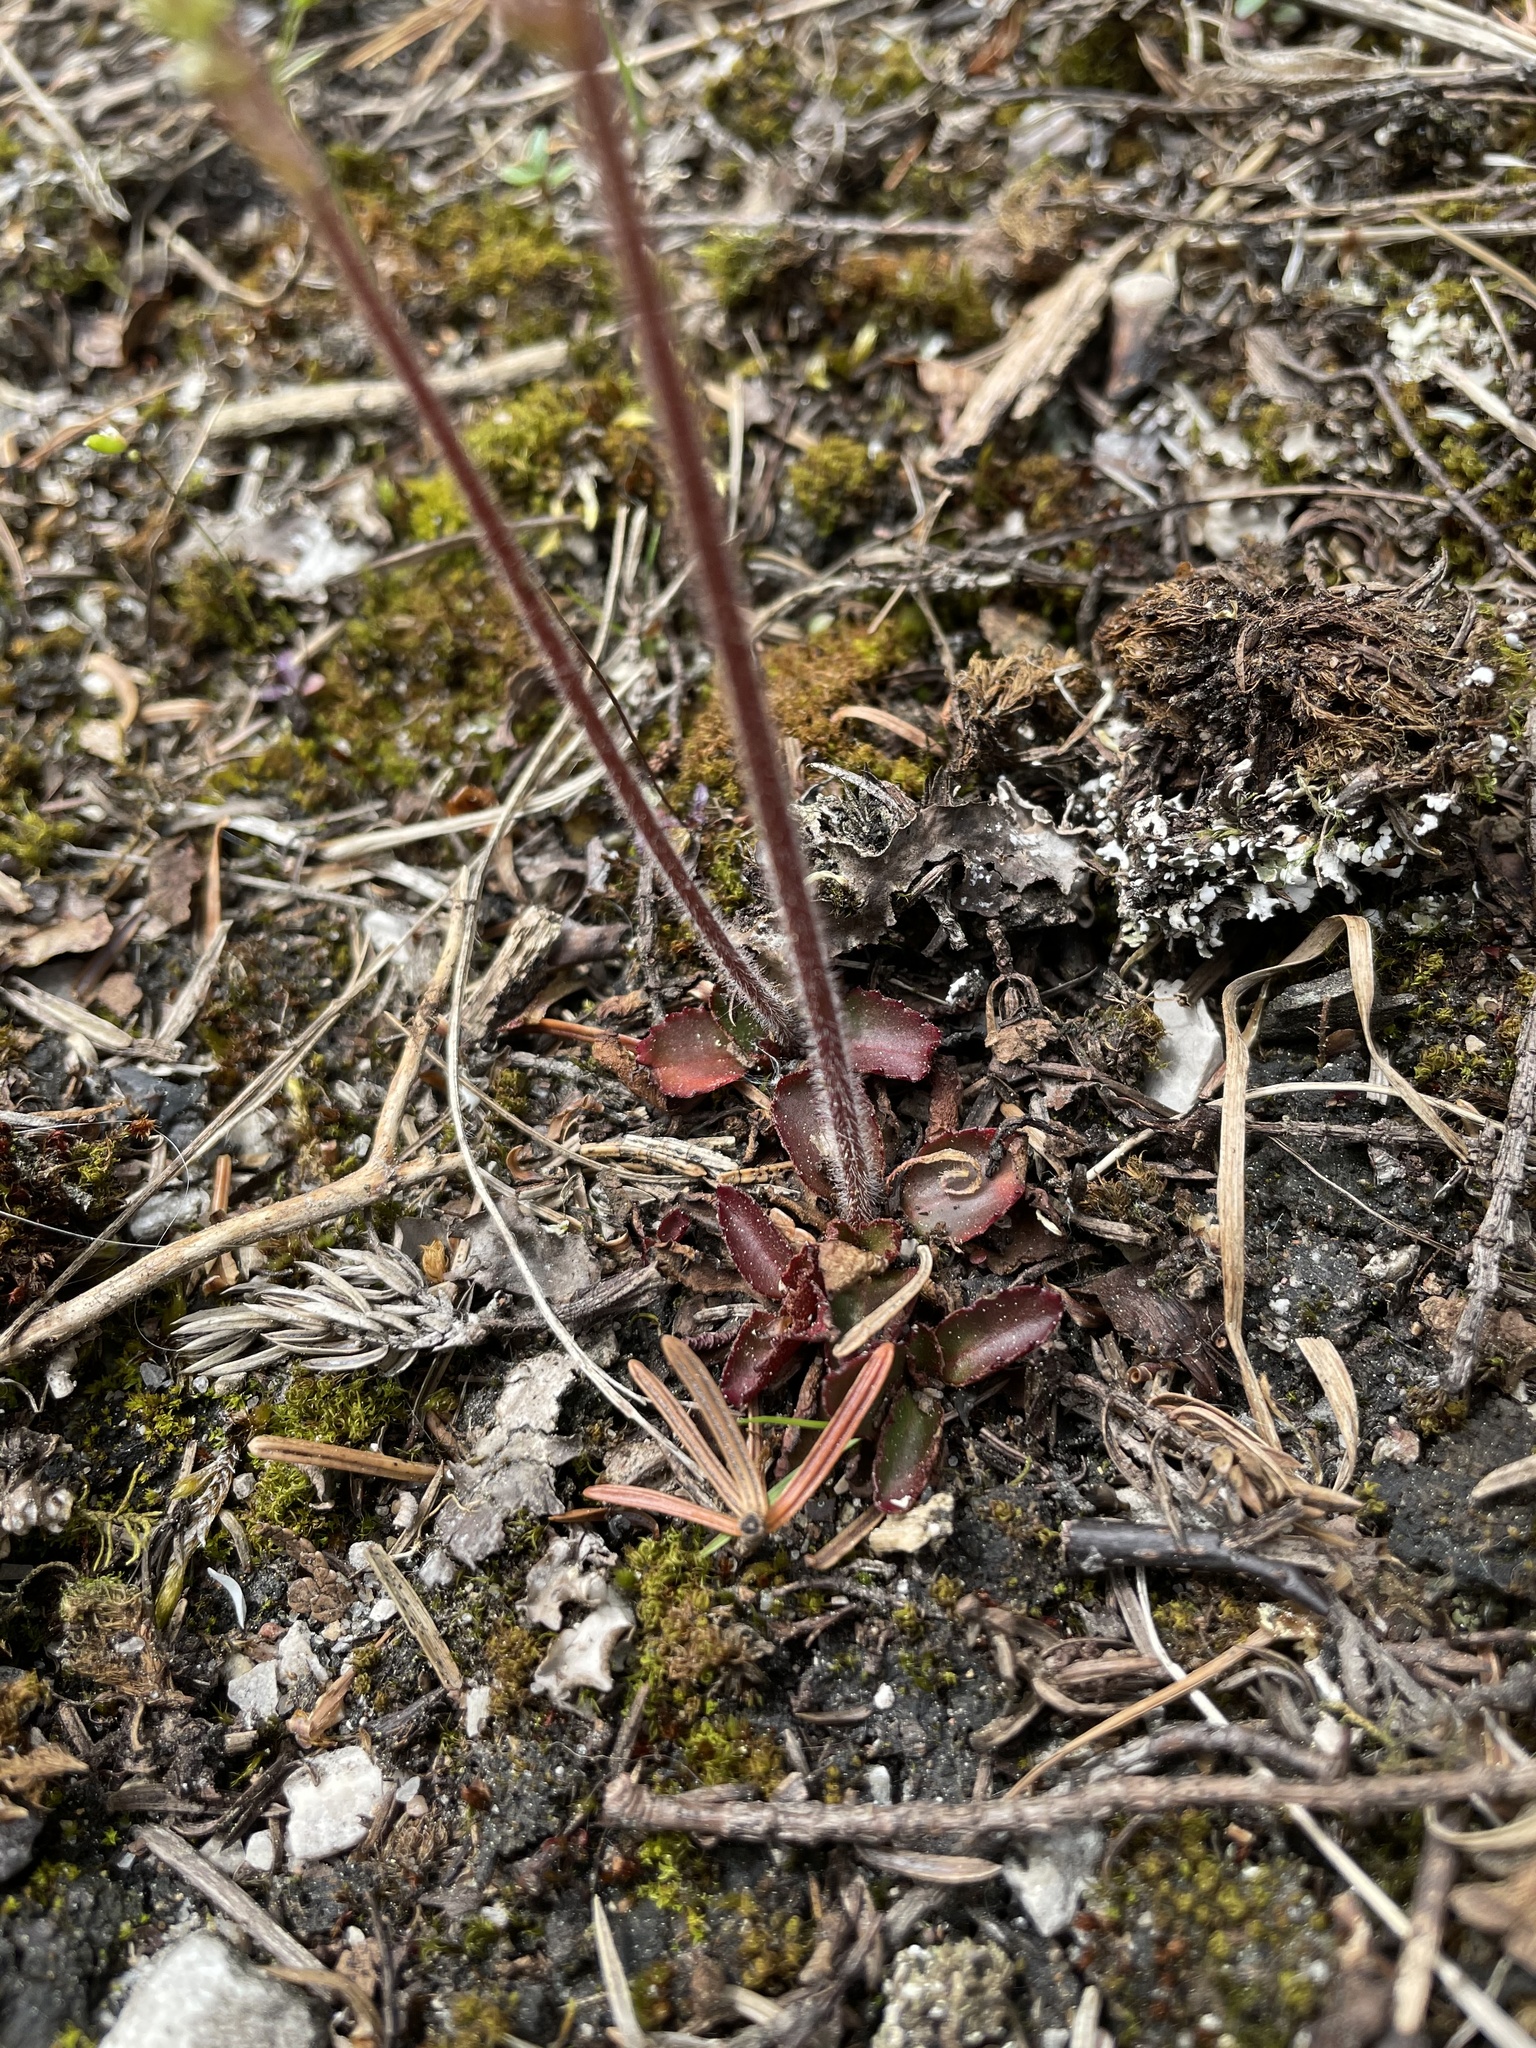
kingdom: Plantae
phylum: Tracheophyta
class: Magnoliopsida
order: Saxifragales
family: Saxifragaceae
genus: Micranthes
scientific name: Micranthes virginiensis
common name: Early saxifrage
